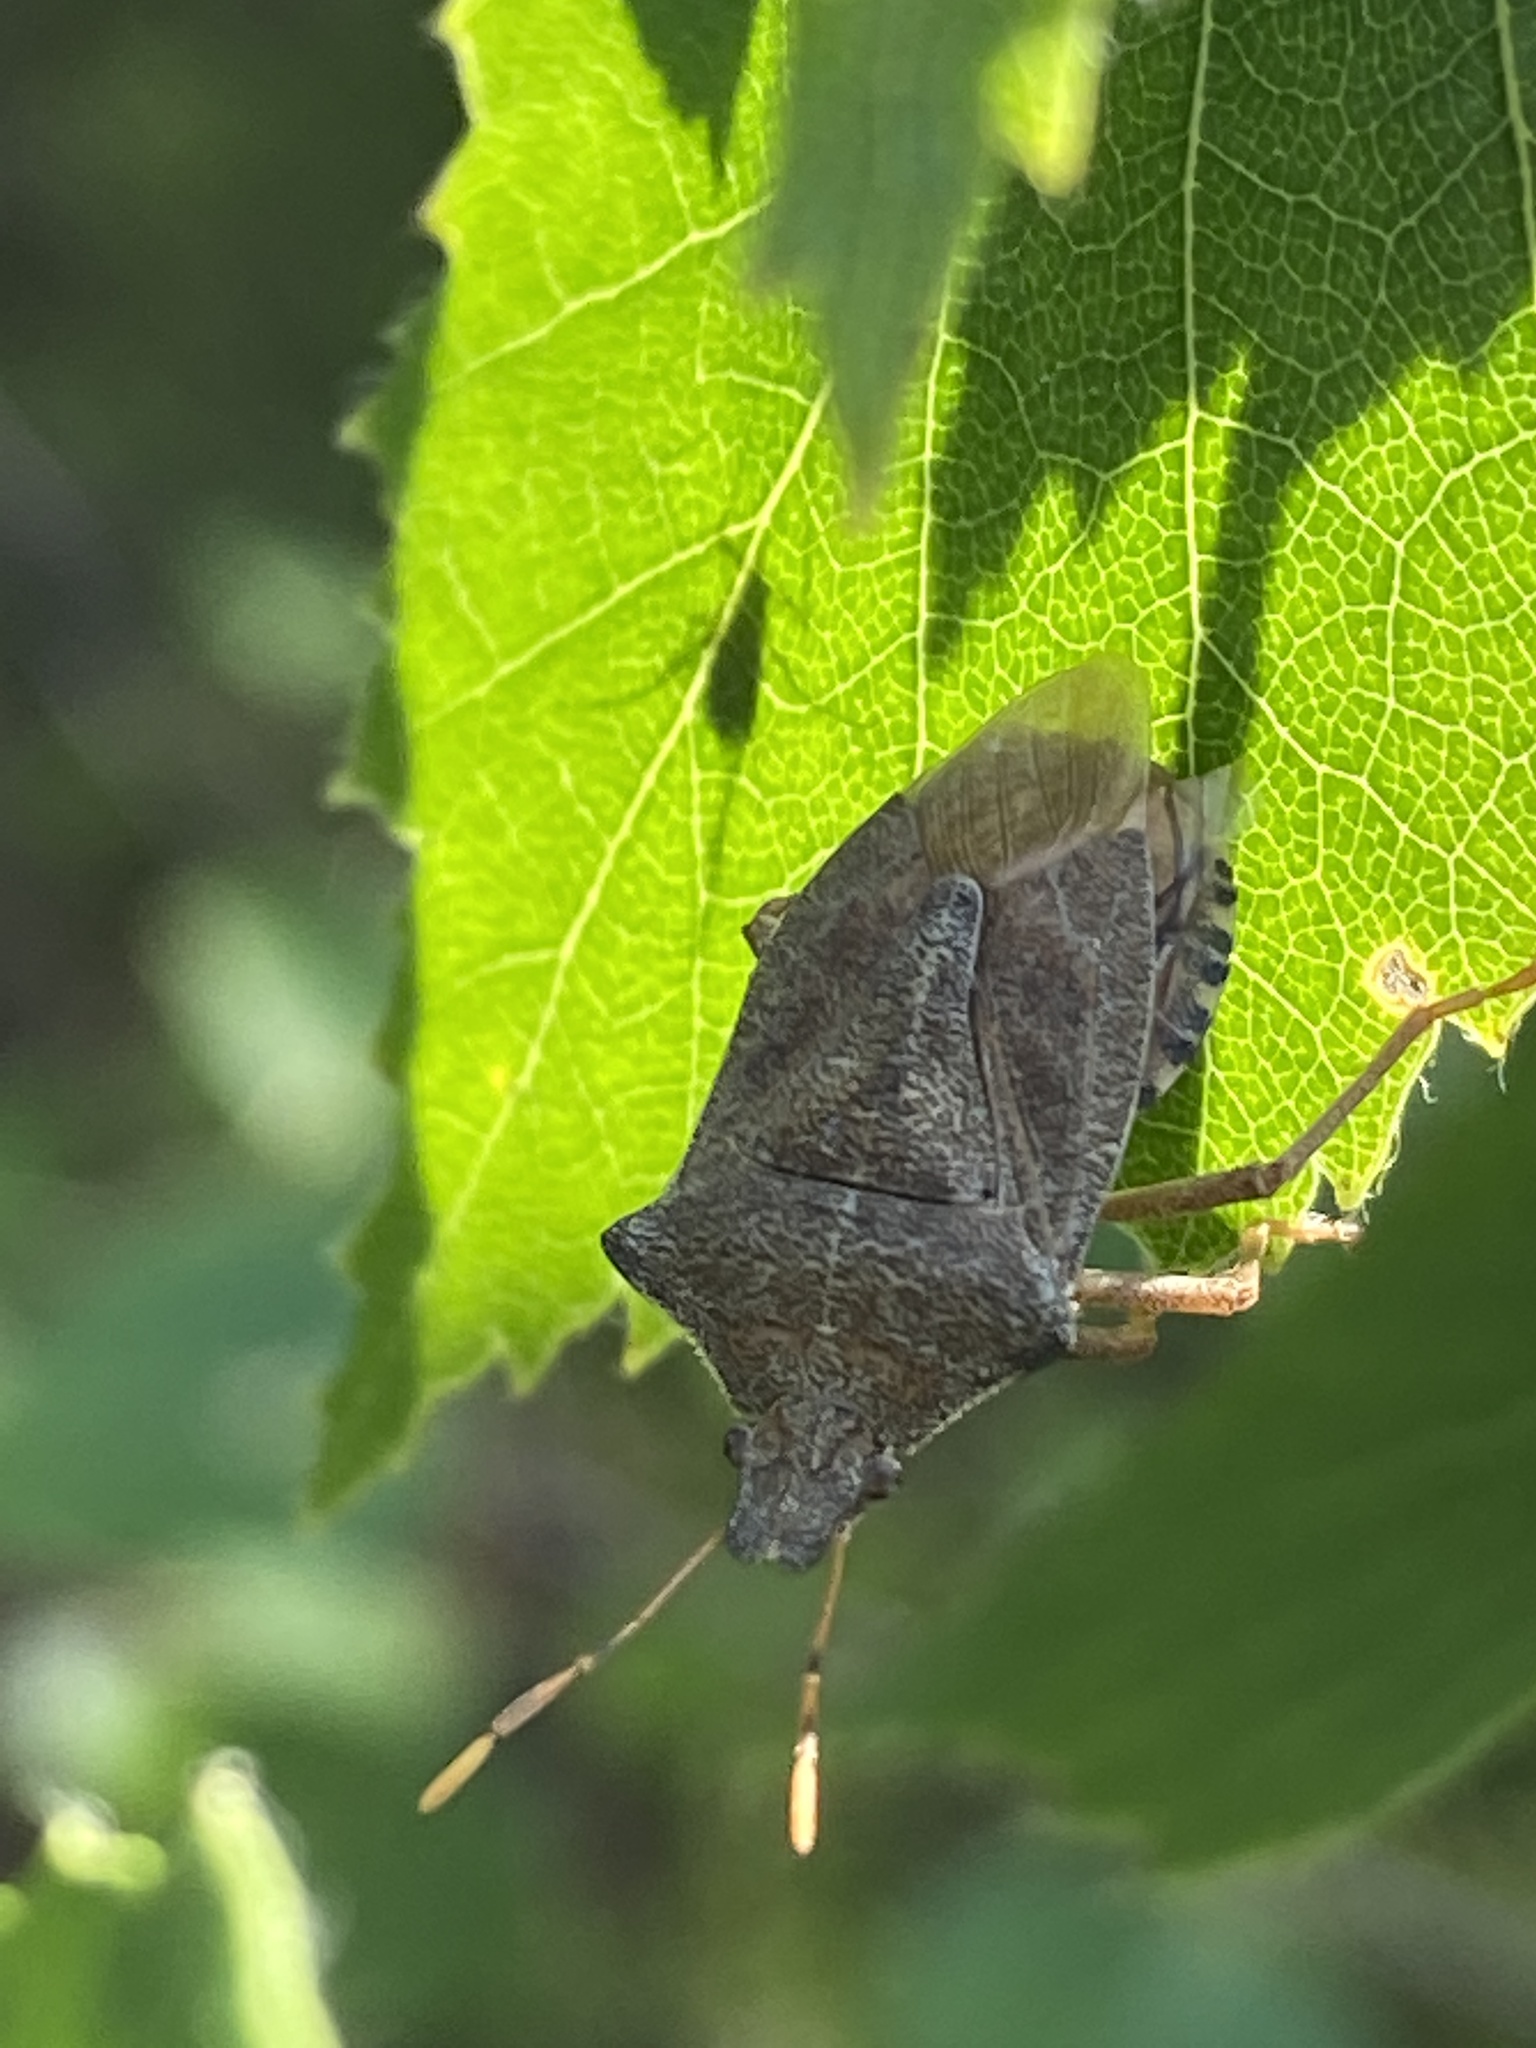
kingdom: Animalia
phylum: Arthropoda
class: Insecta
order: Hemiptera
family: Pentatomidae
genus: Arma
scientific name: Arma custos
